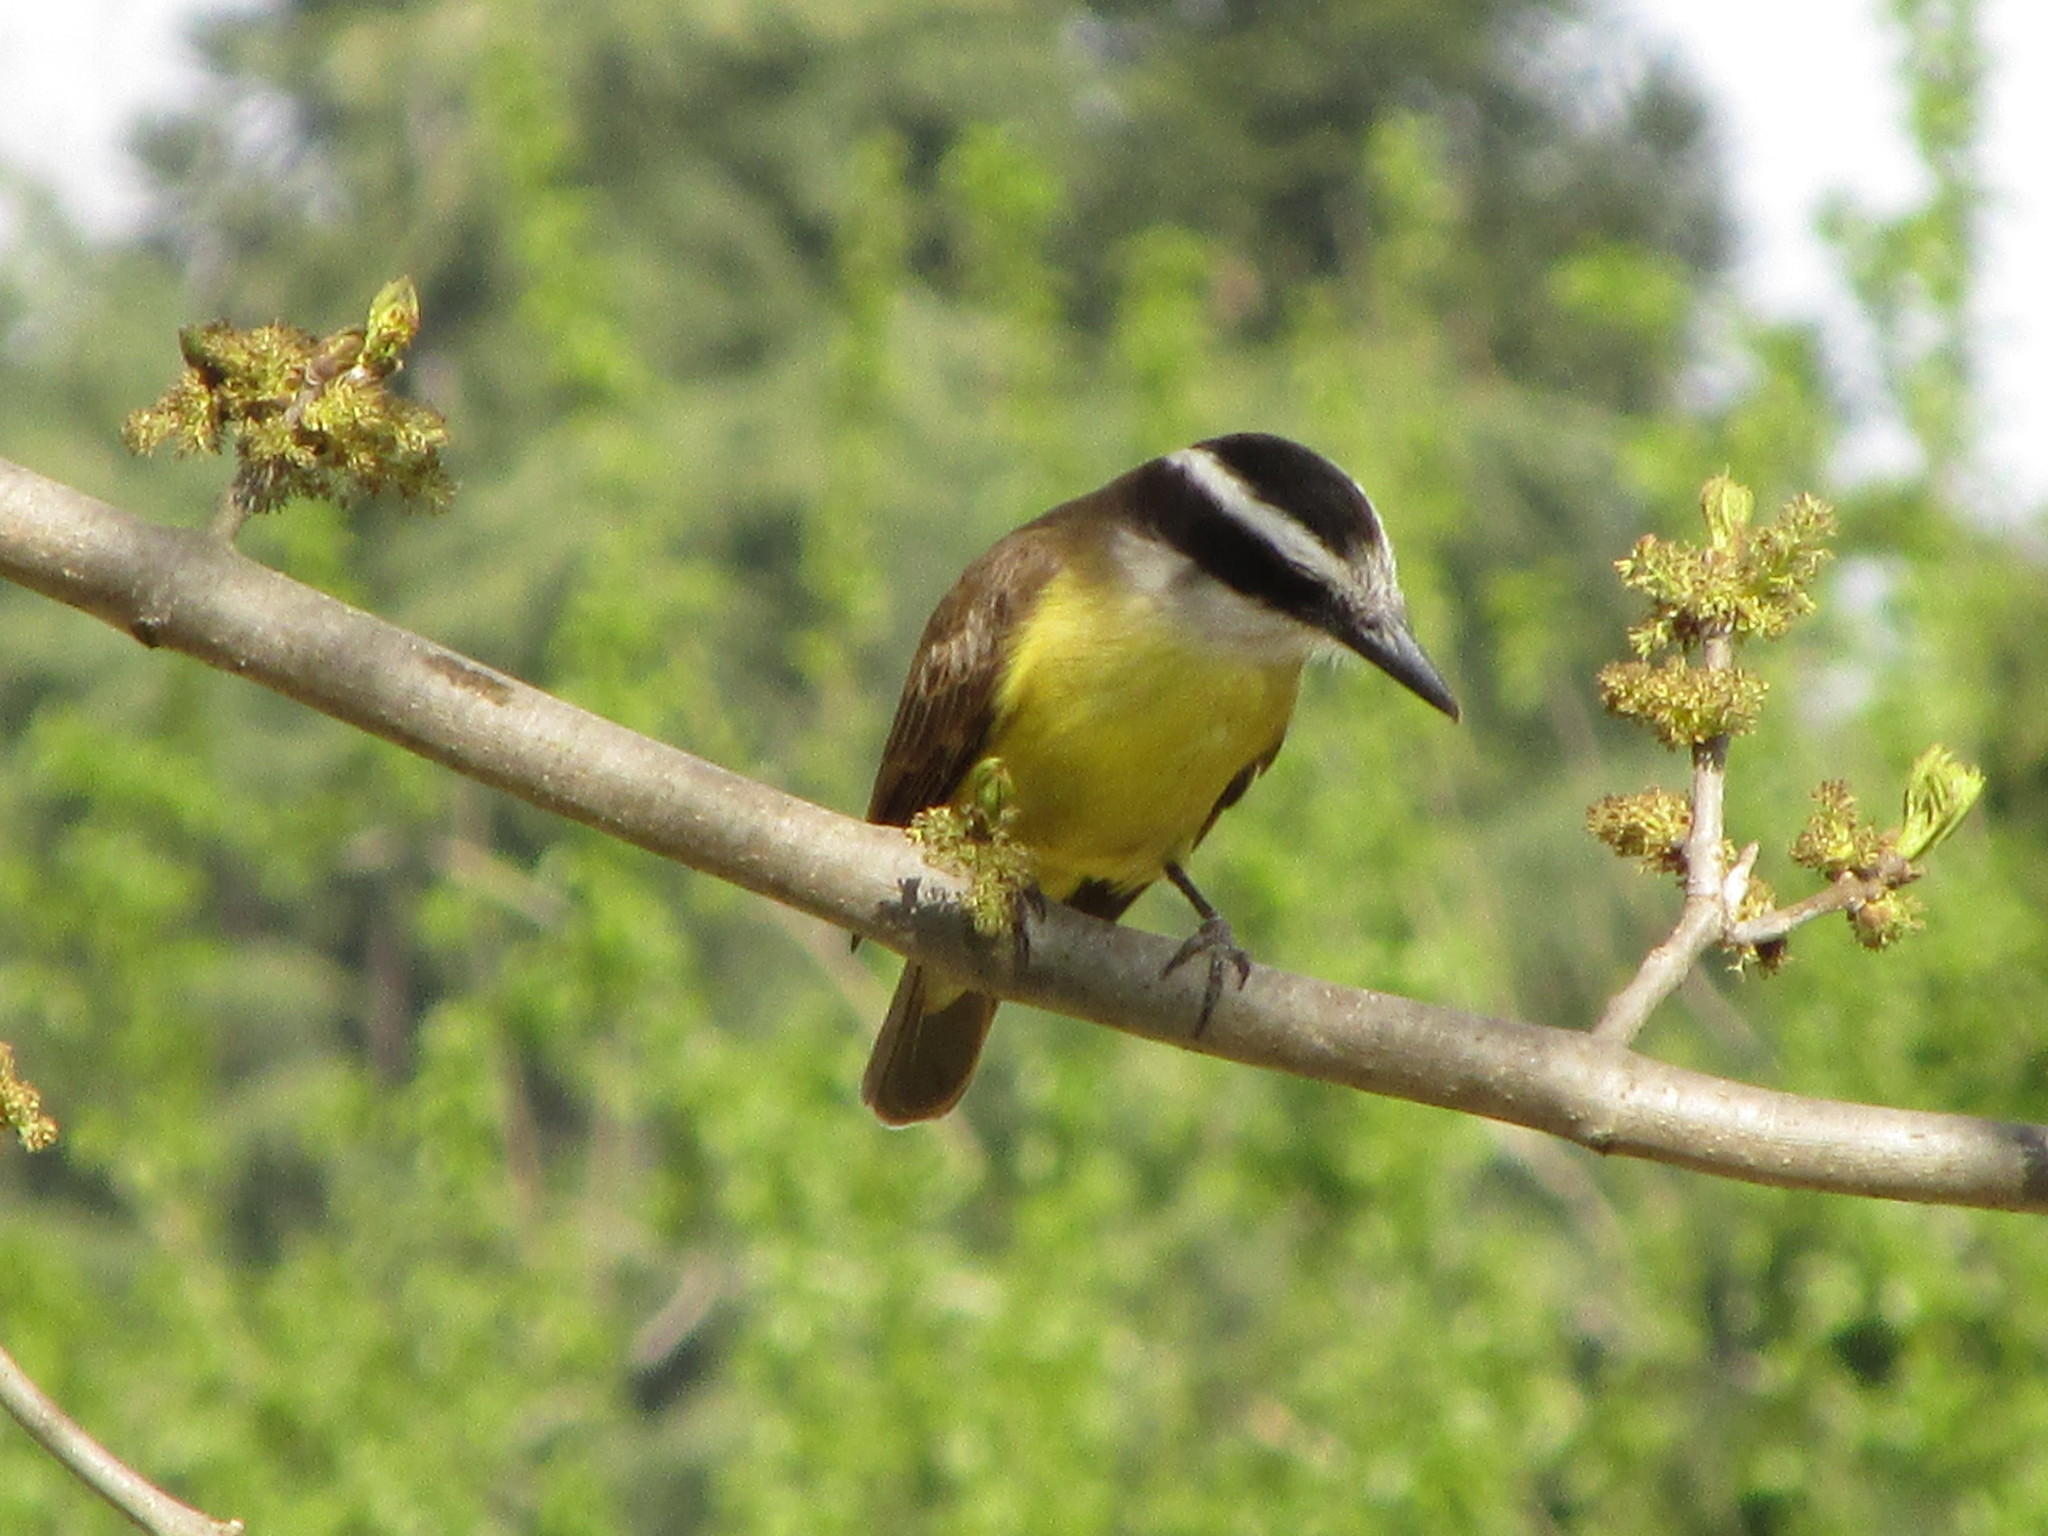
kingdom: Animalia
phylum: Chordata
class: Aves
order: Passeriformes
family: Tyrannidae
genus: Pitangus
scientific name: Pitangus sulphuratus
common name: Great kiskadee
